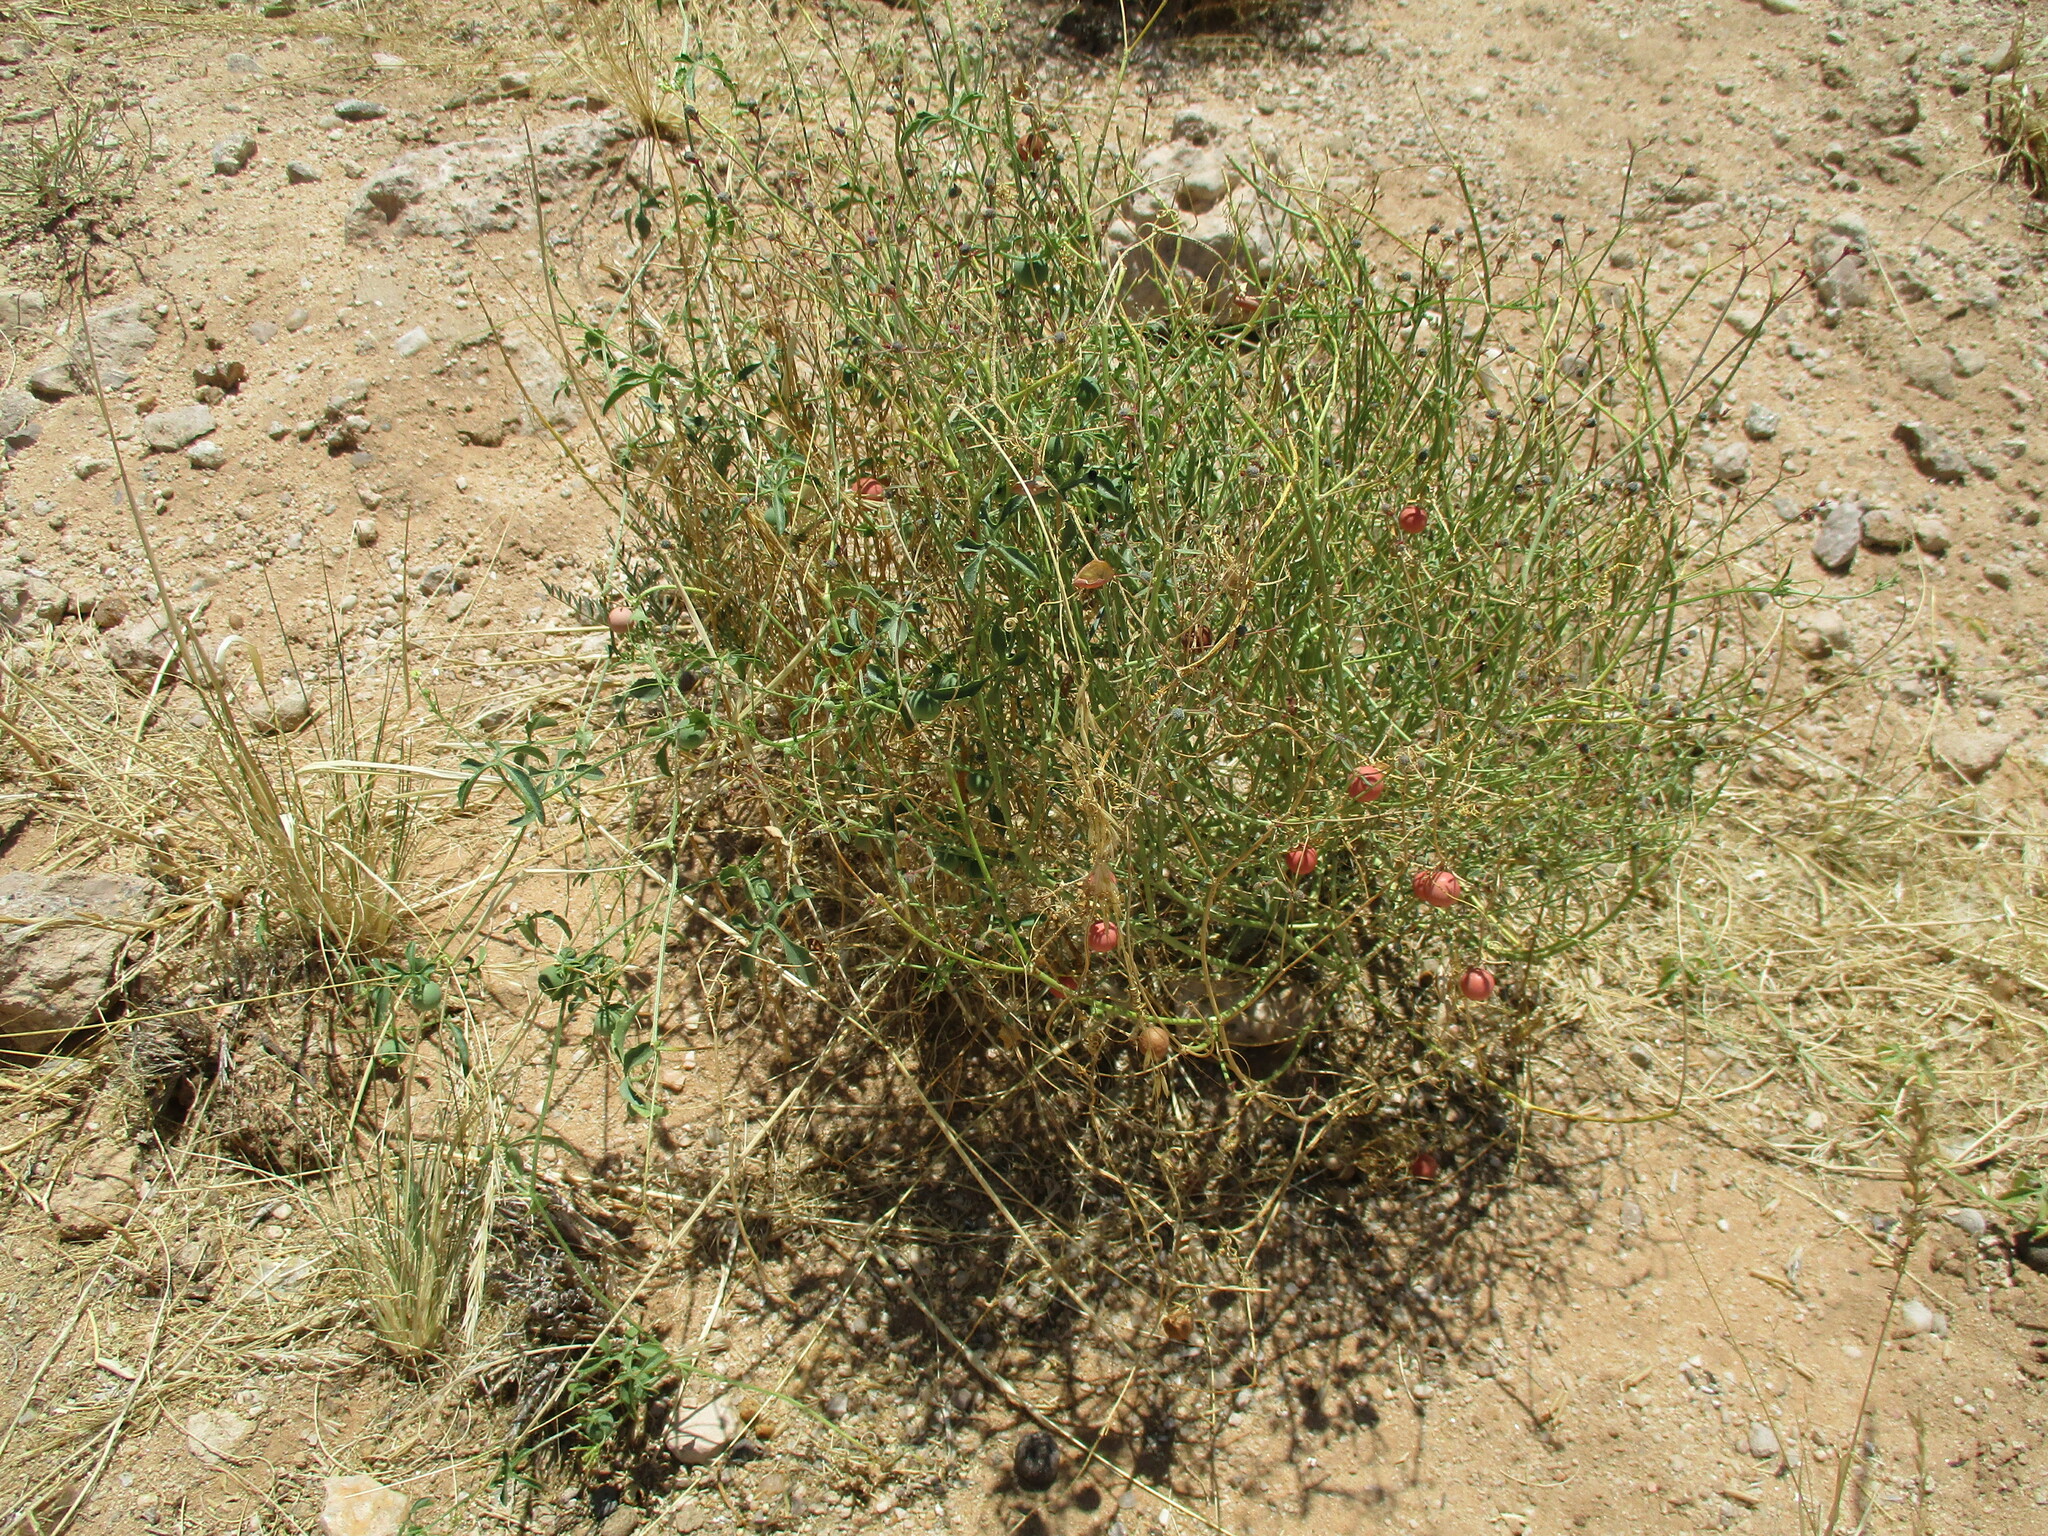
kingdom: Plantae
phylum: Tracheophyta
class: Magnoliopsida
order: Cucurbitales
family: Cucurbitaceae
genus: Dactyliandra
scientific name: Dactyliandra welwitschii
